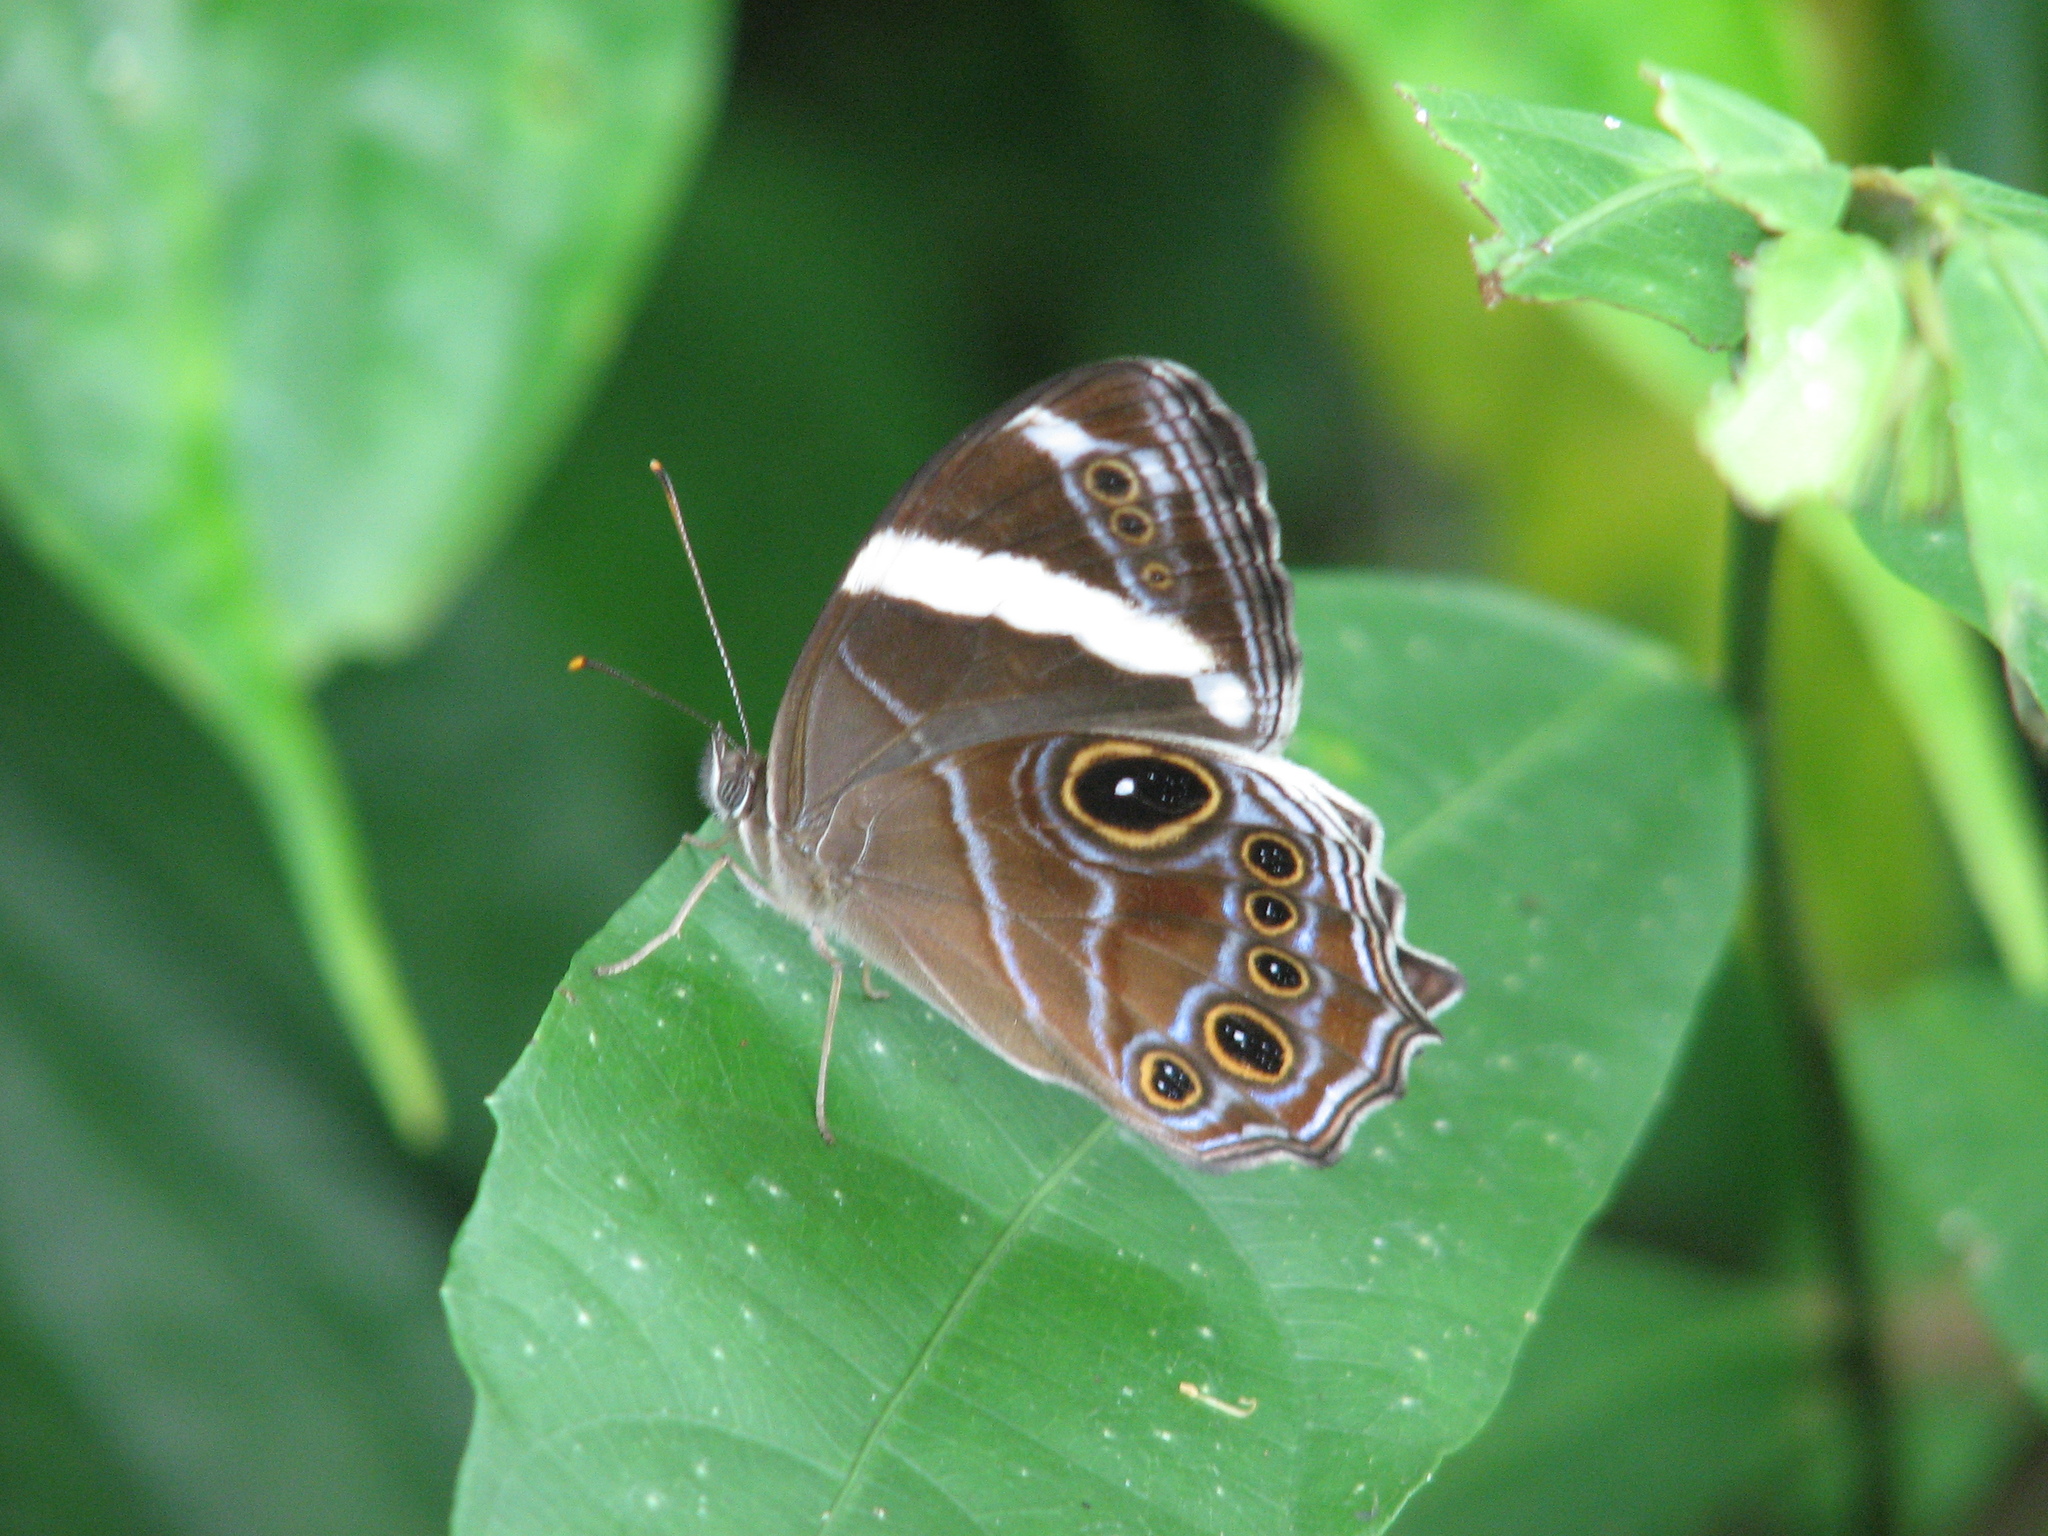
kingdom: Animalia
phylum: Arthropoda
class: Insecta
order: Lepidoptera
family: Nymphalidae
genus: Lethe
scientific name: Lethe confusa
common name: Banded treebrown
